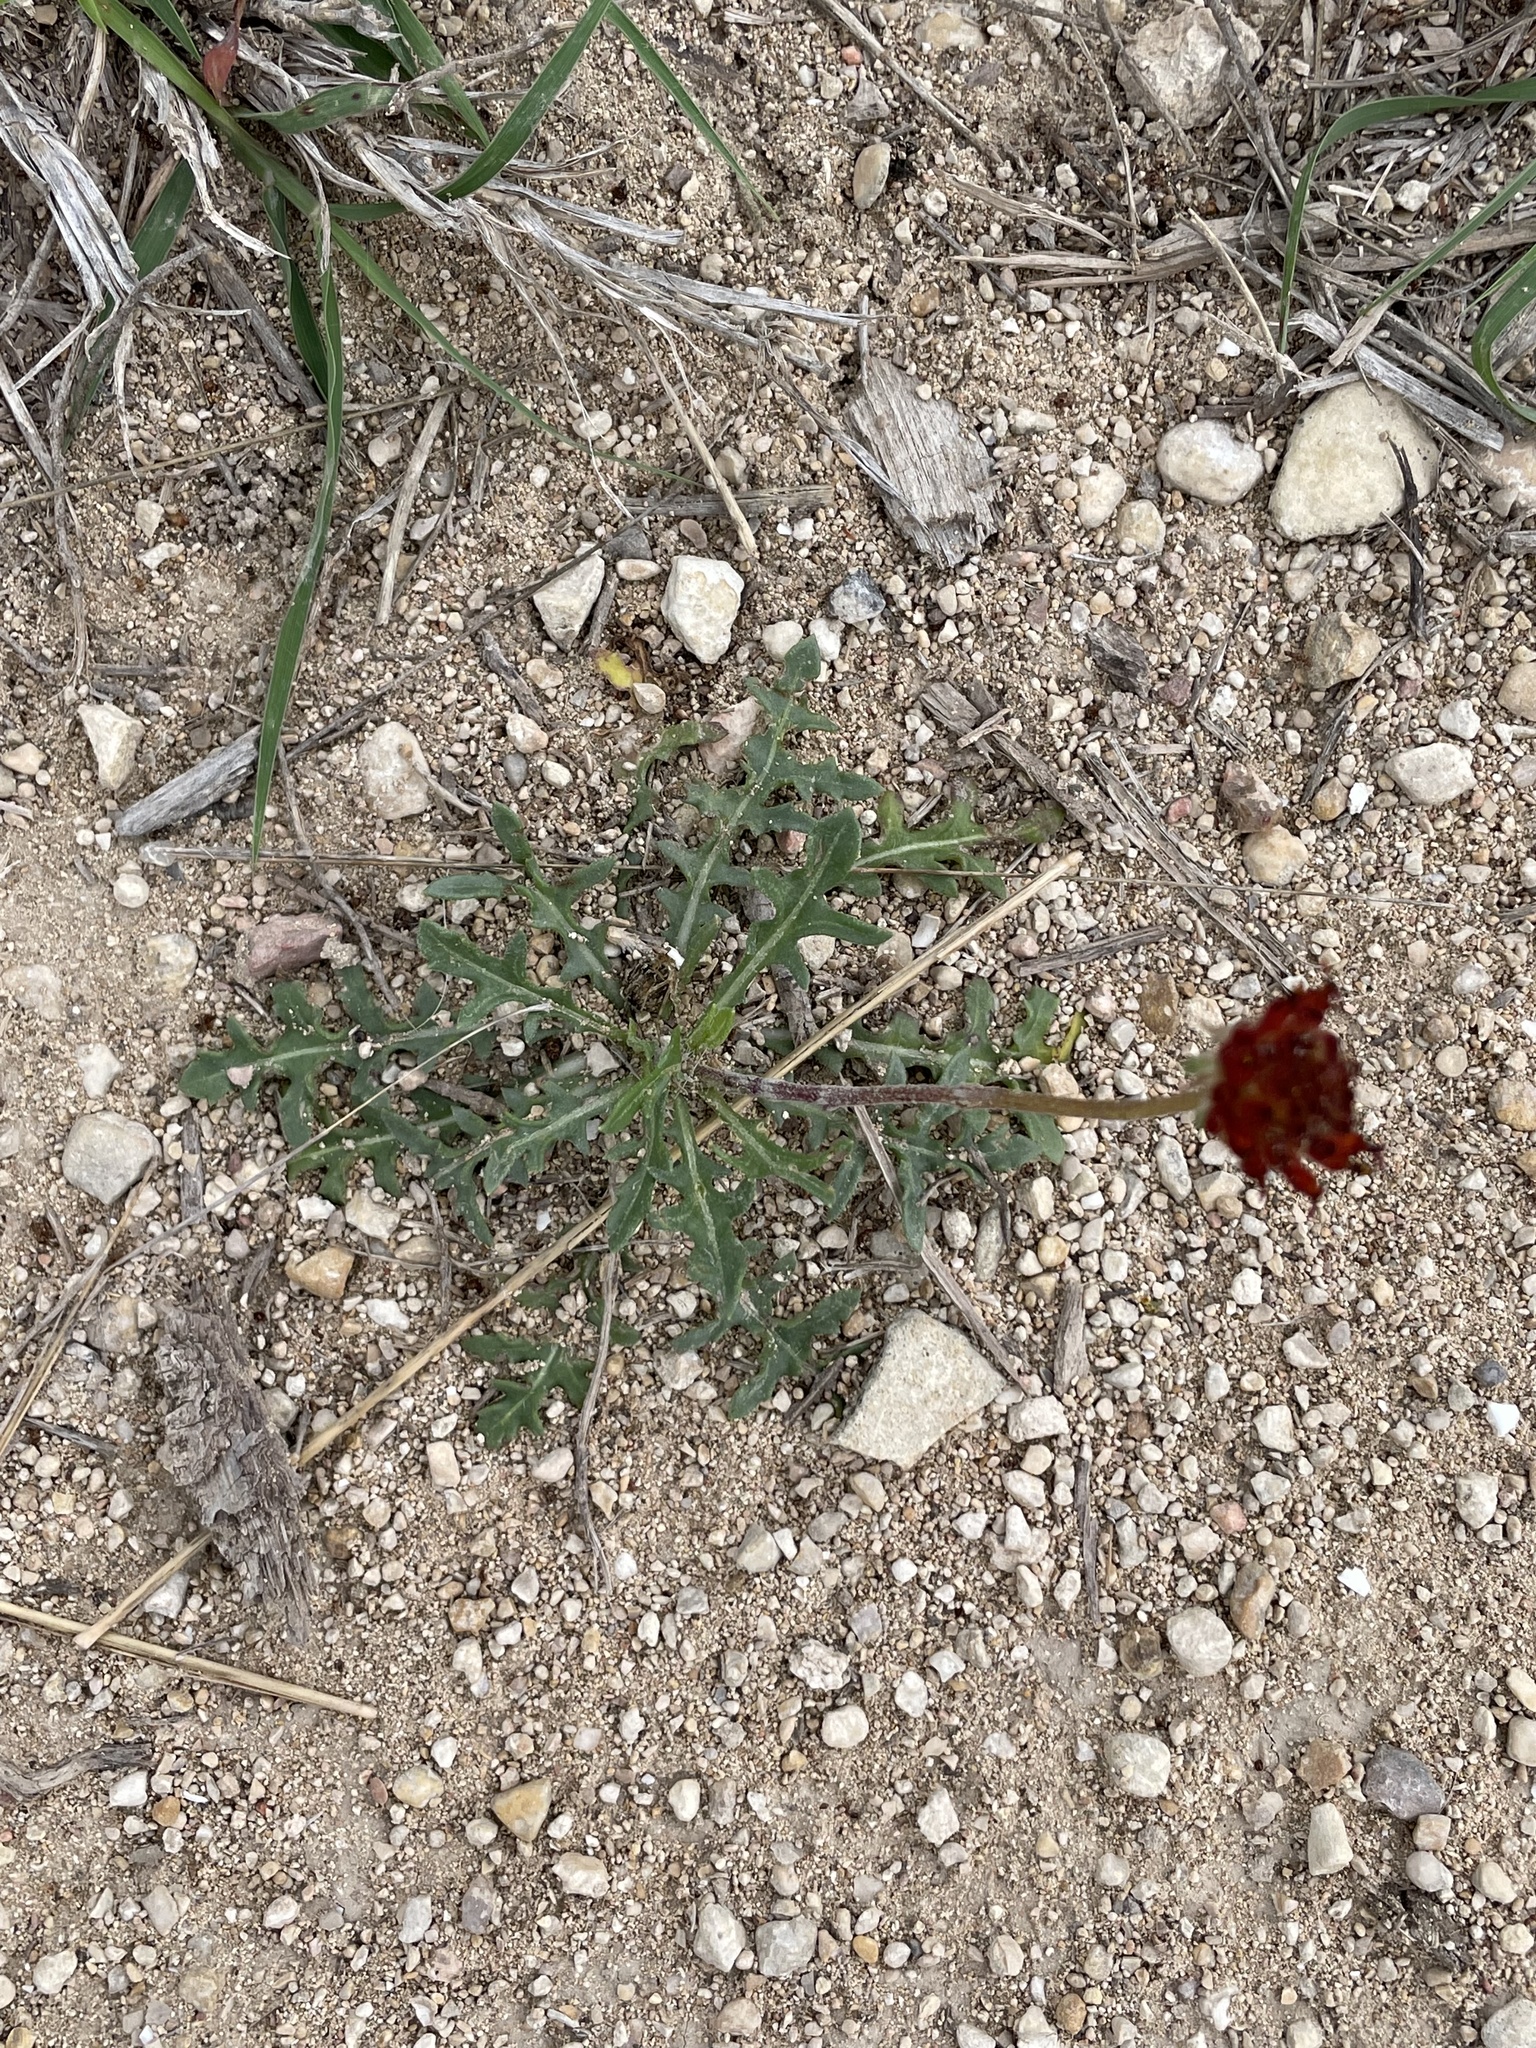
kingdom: Plantae
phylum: Tracheophyta
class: Magnoliopsida
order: Asterales
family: Asteraceae
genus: Gaillardia
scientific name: Gaillardia suavis
